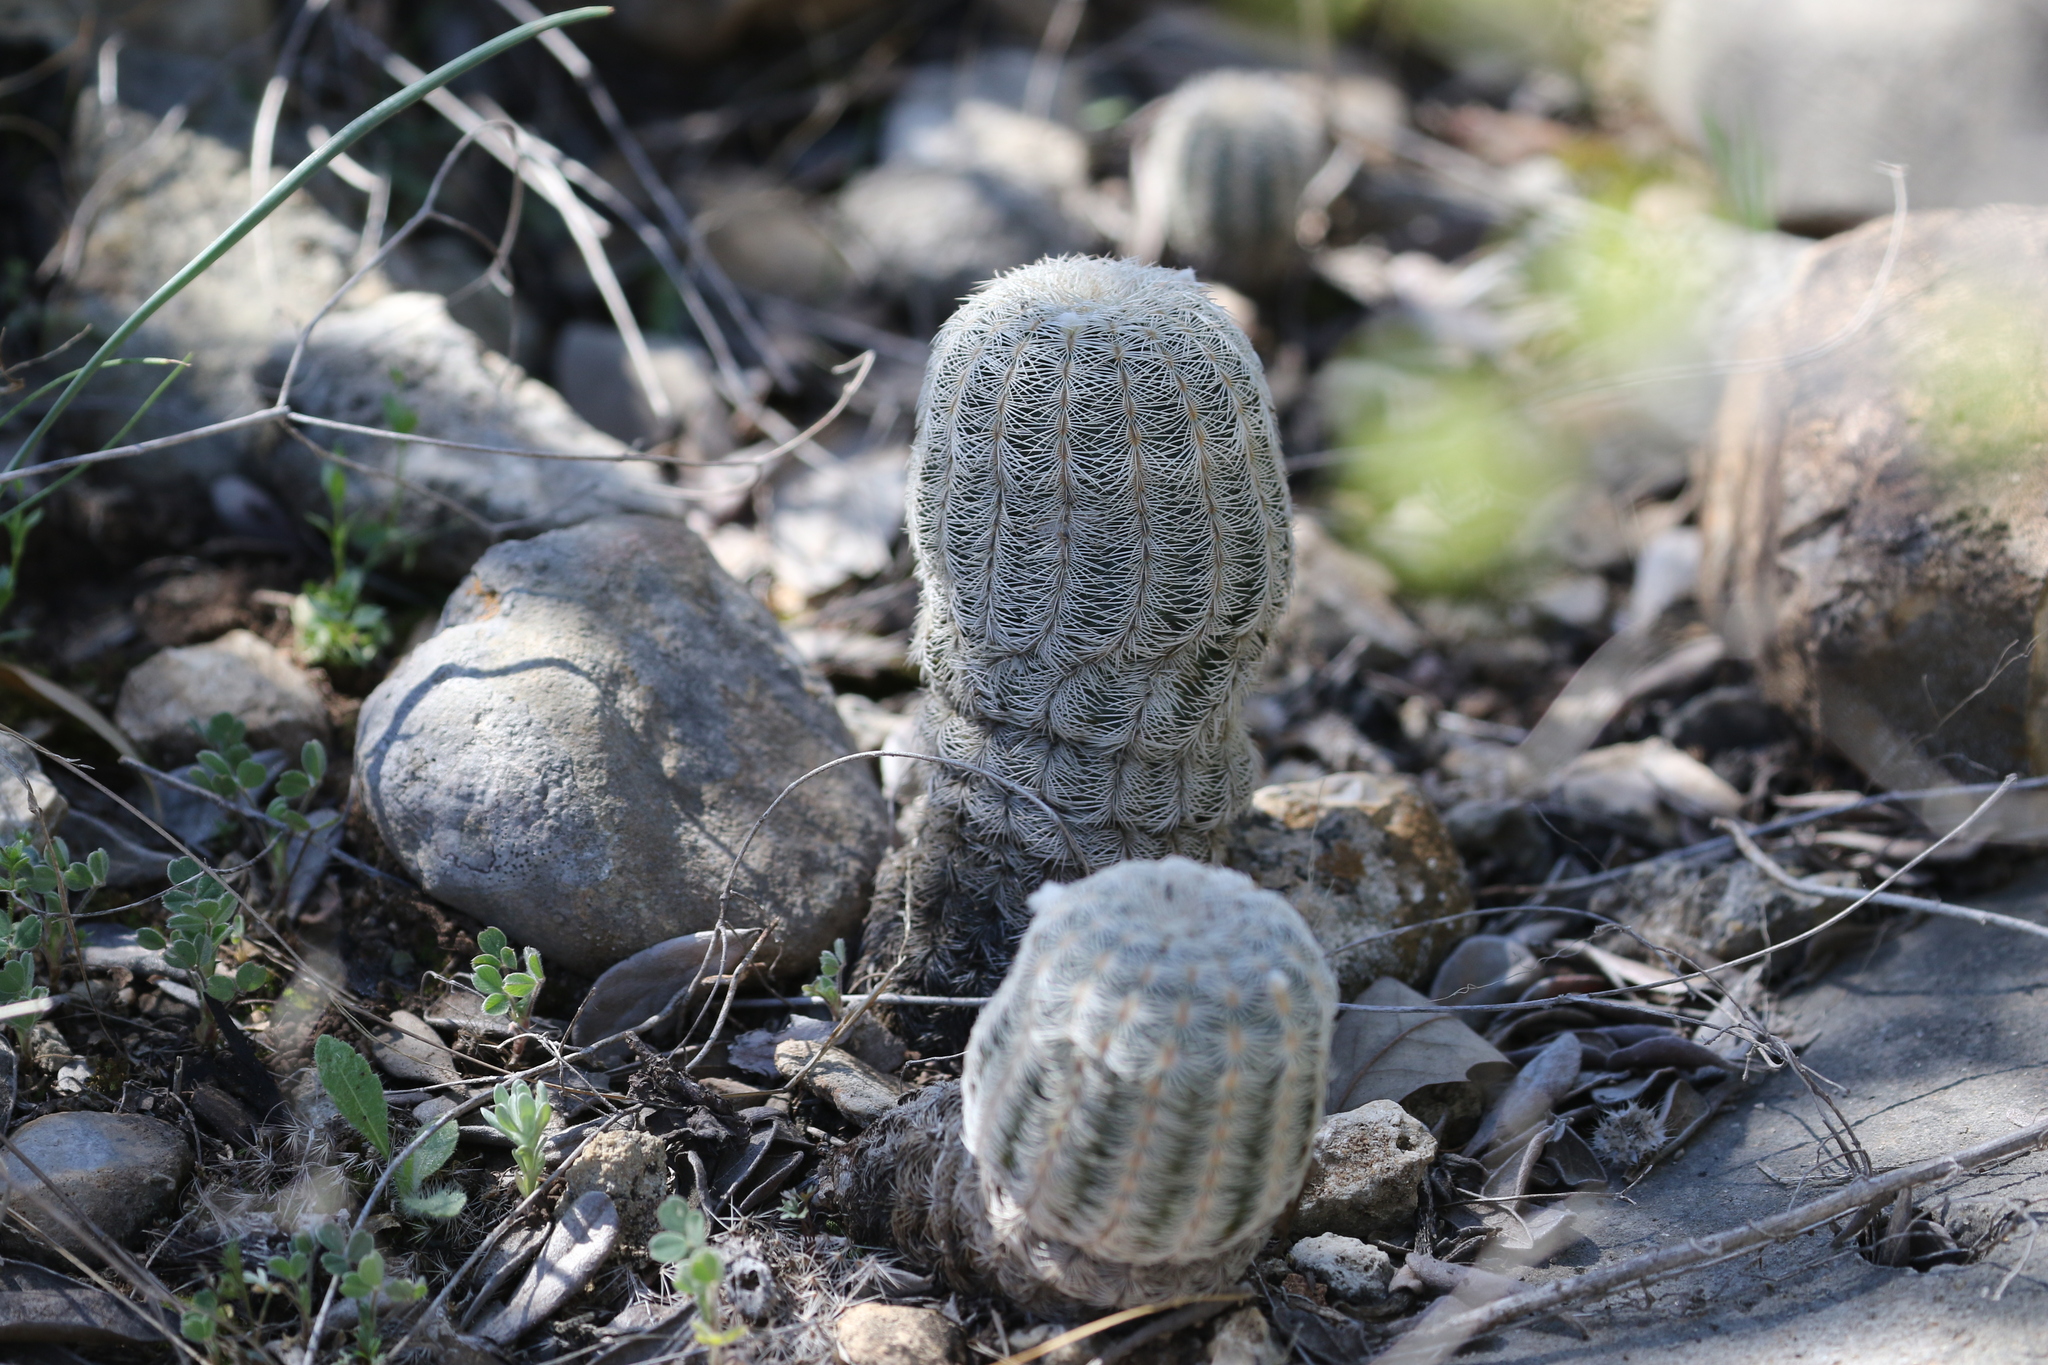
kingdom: Plantae
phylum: Tracheophyta
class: Magnoliopsida
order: Caryophyllales
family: Cactaceae
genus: Echinocereus
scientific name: Echinocereus reichenbachii
